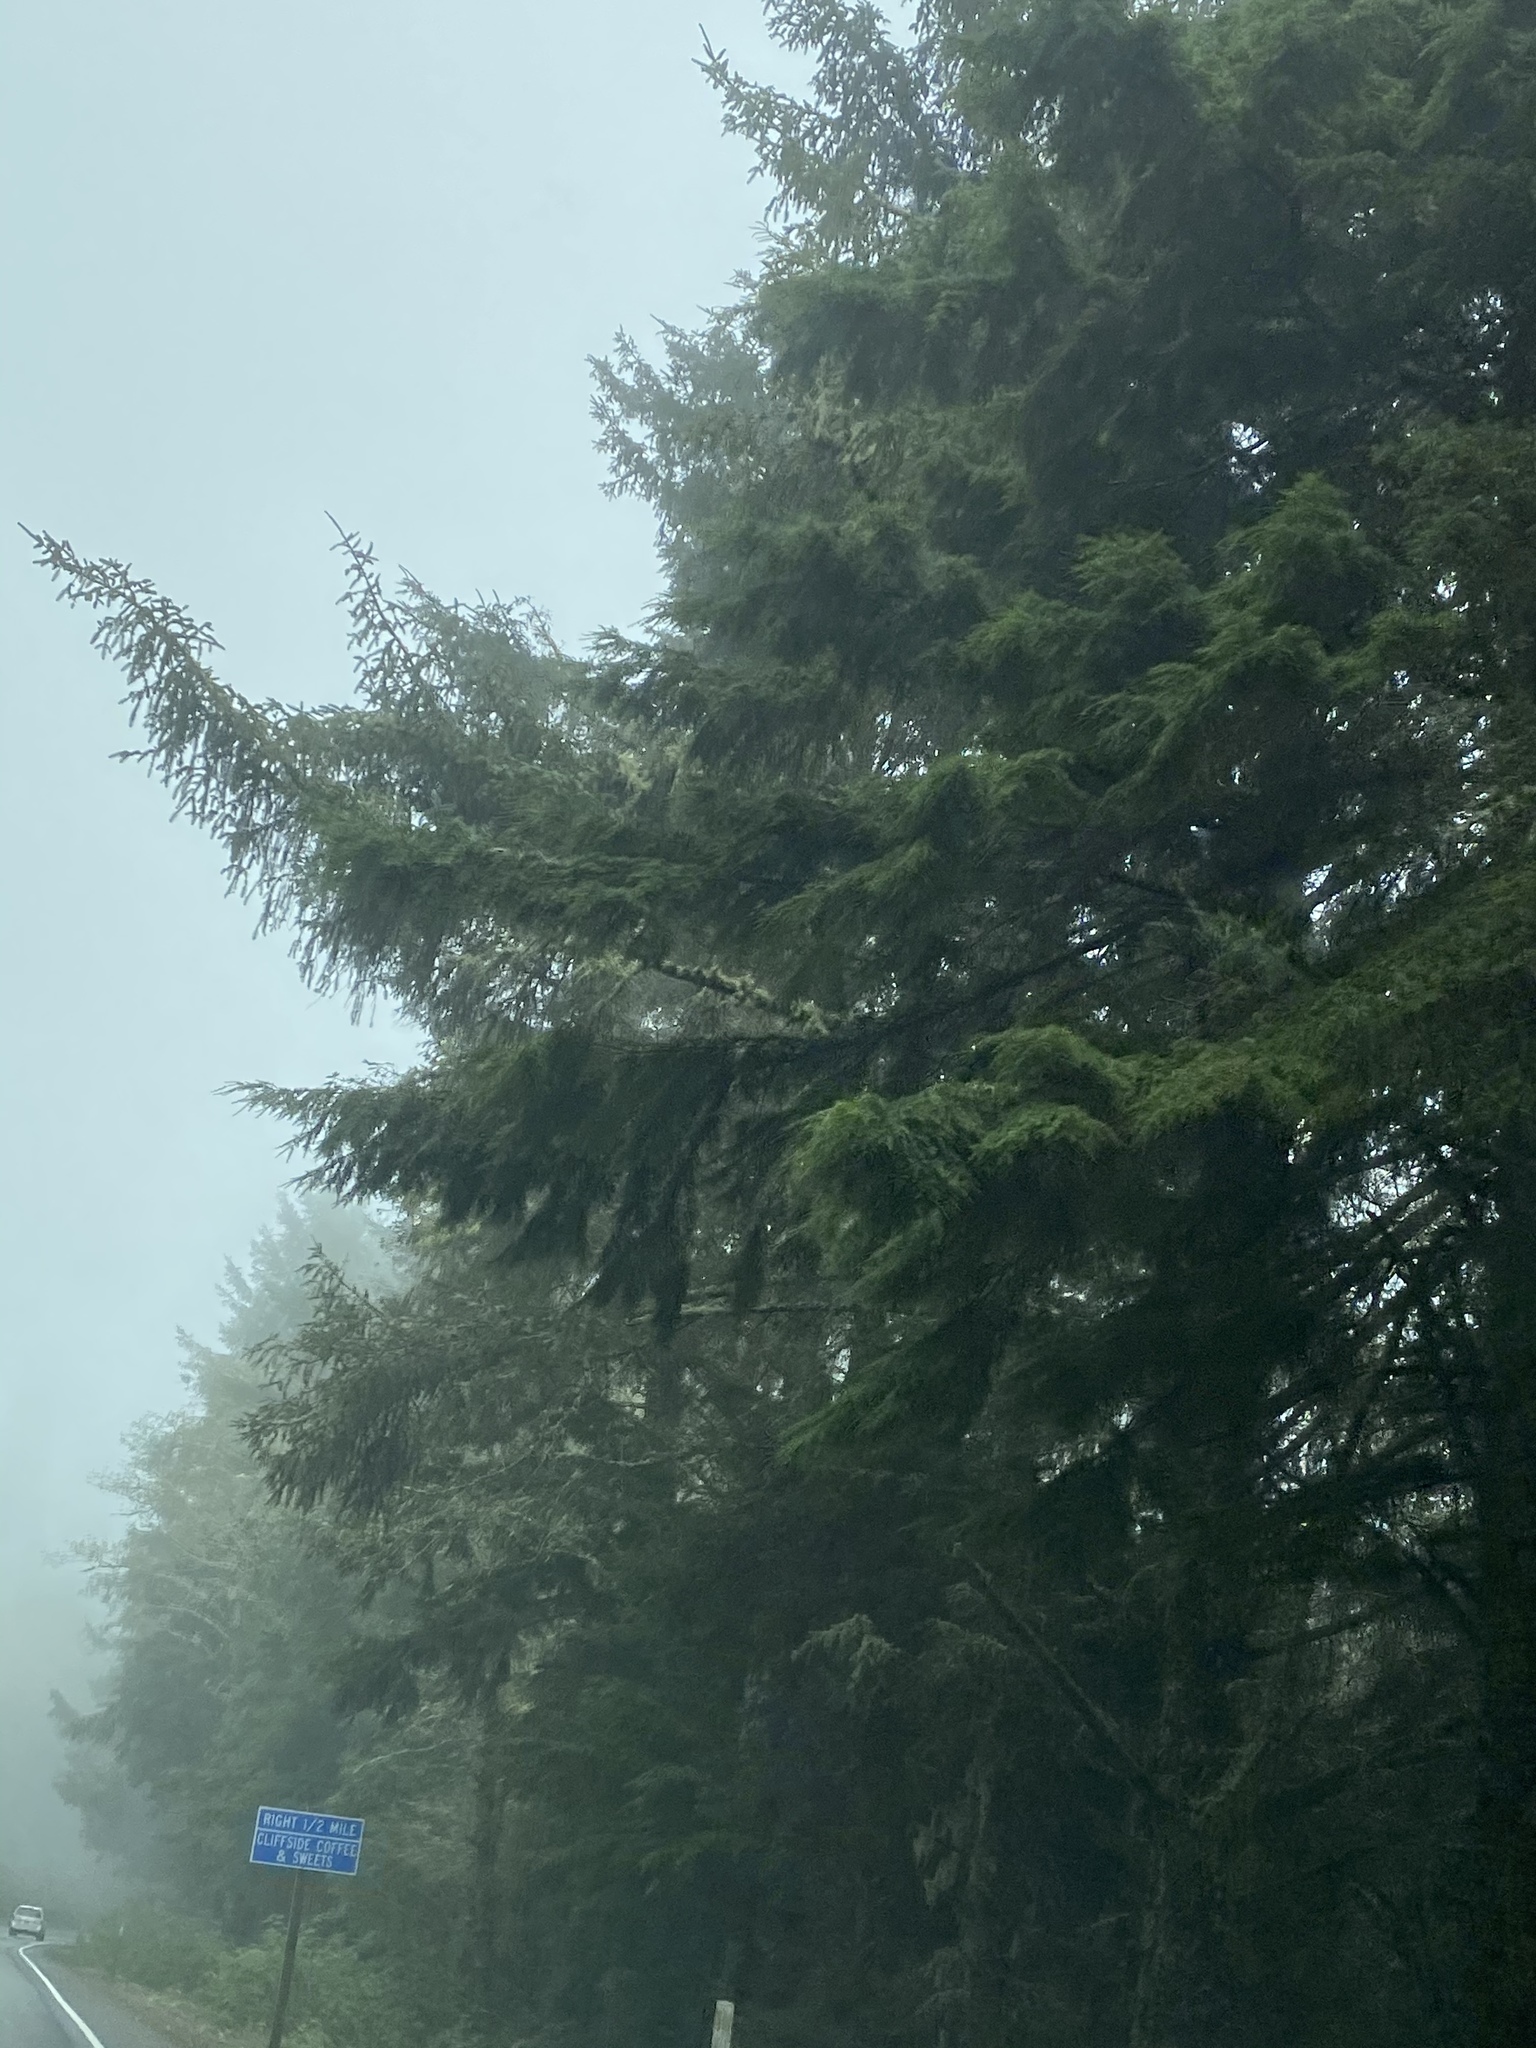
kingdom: Plantae
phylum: Tracheophyta
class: Pinopsida
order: Pinales
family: Pinaceae
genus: Tsuga
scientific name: Tsuga heterophylla
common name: Western hemlock
